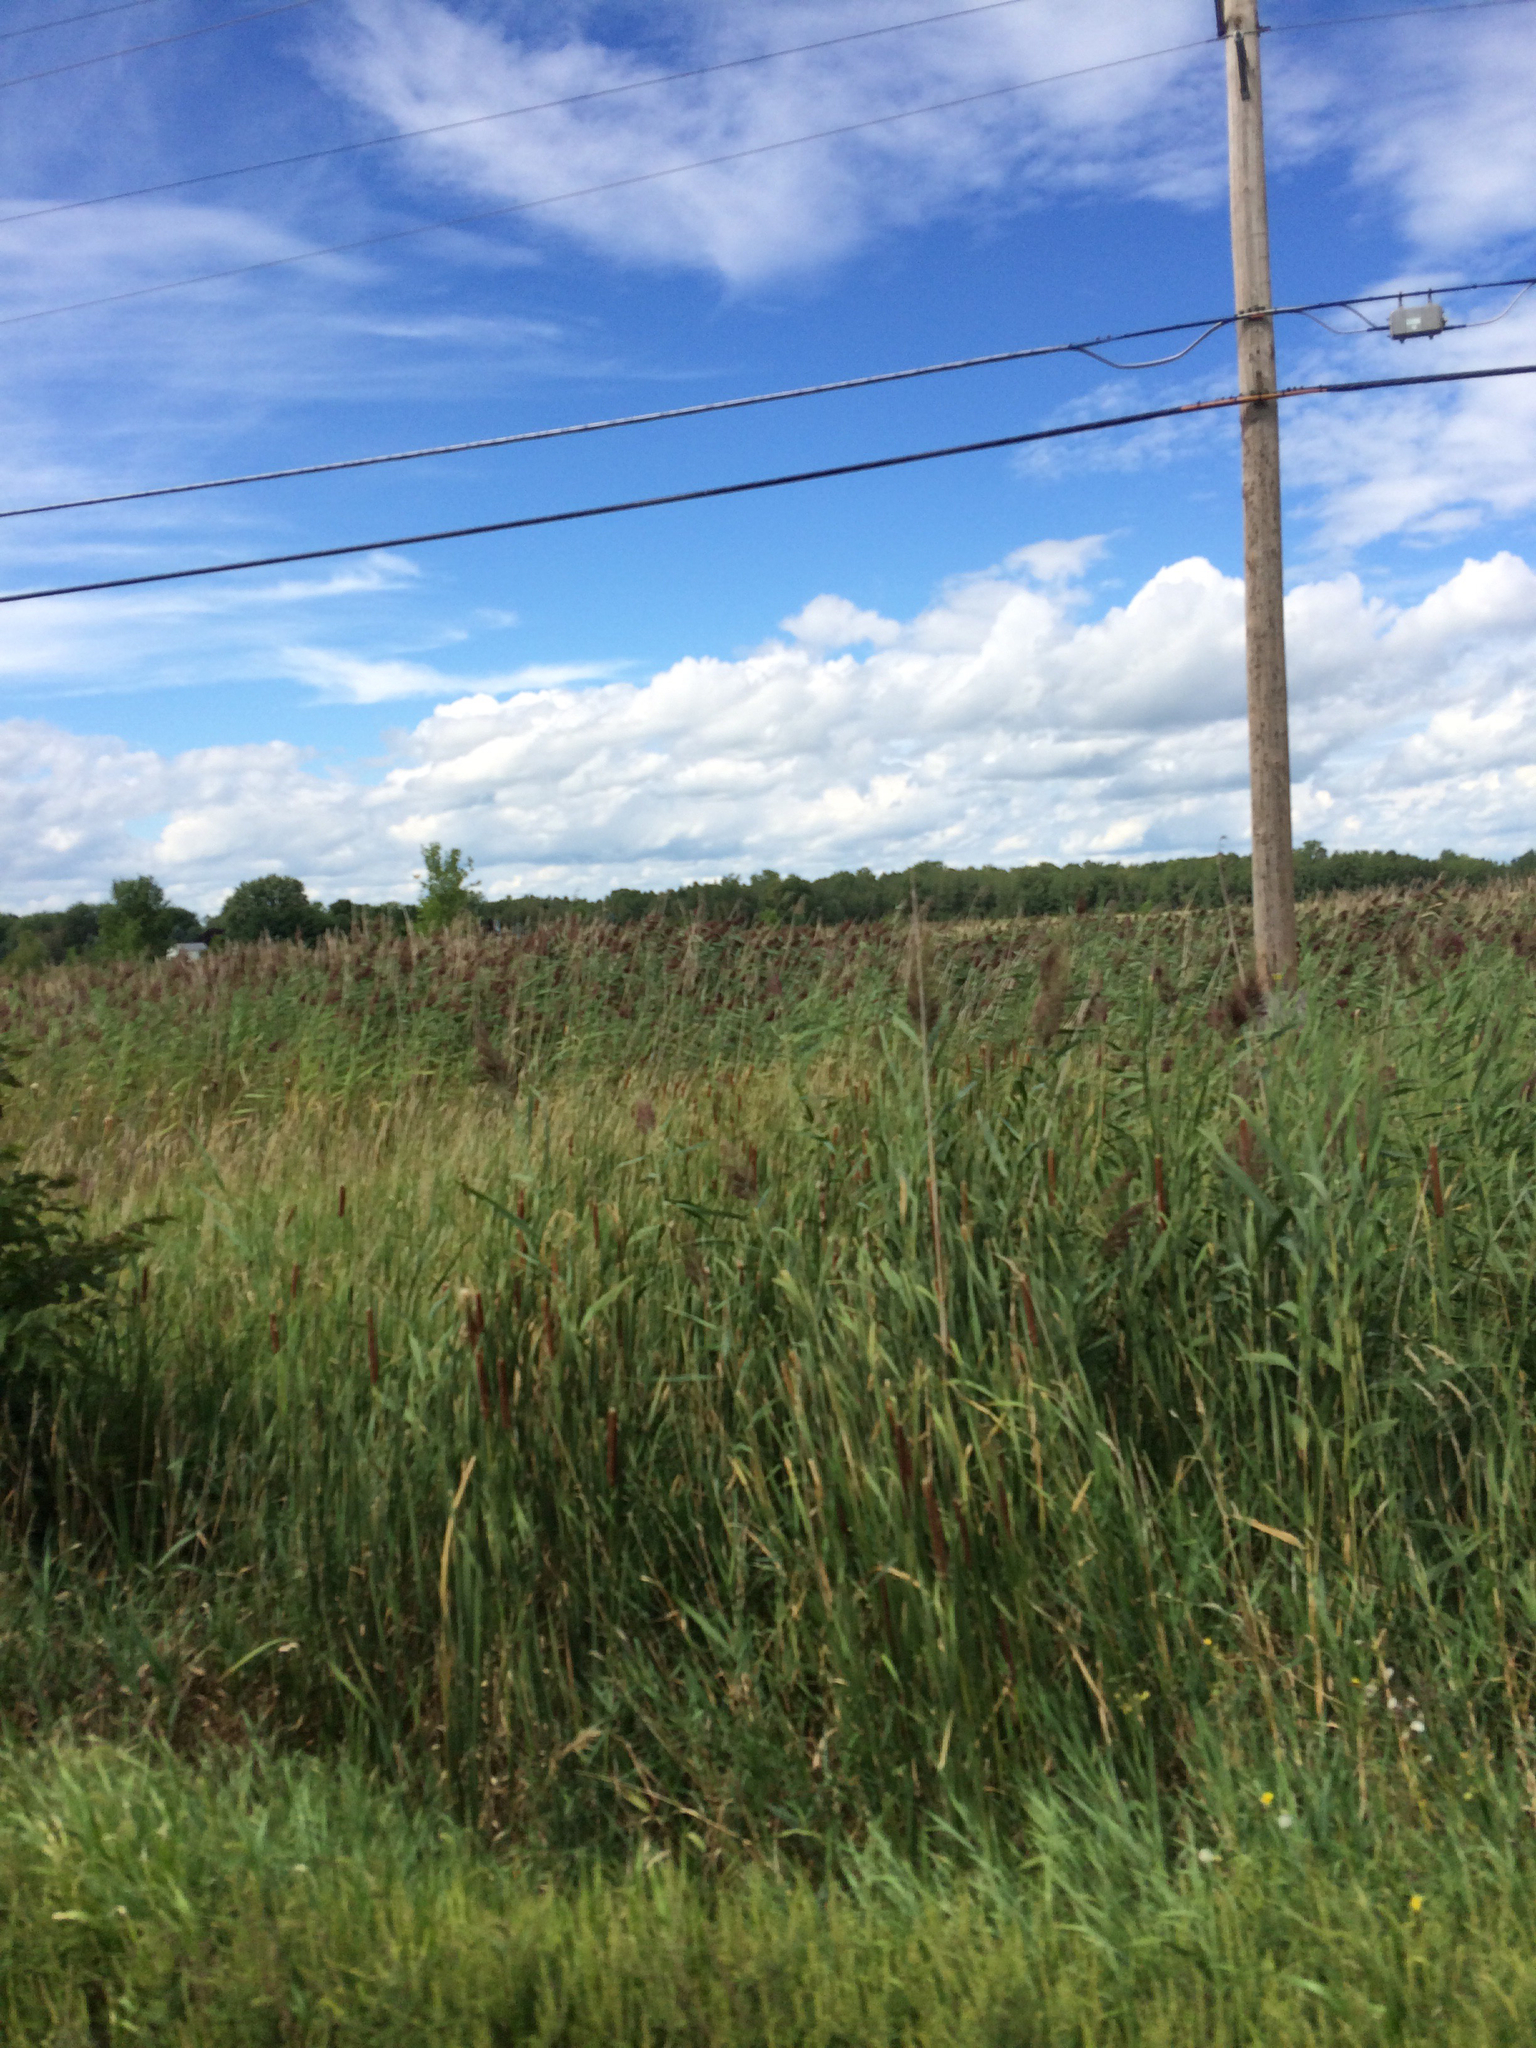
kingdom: Plantae
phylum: Tracheophyta
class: Liliopsida
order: Poales
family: Poaceae
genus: Phragmites
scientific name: Phragmites australis
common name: Common reed
